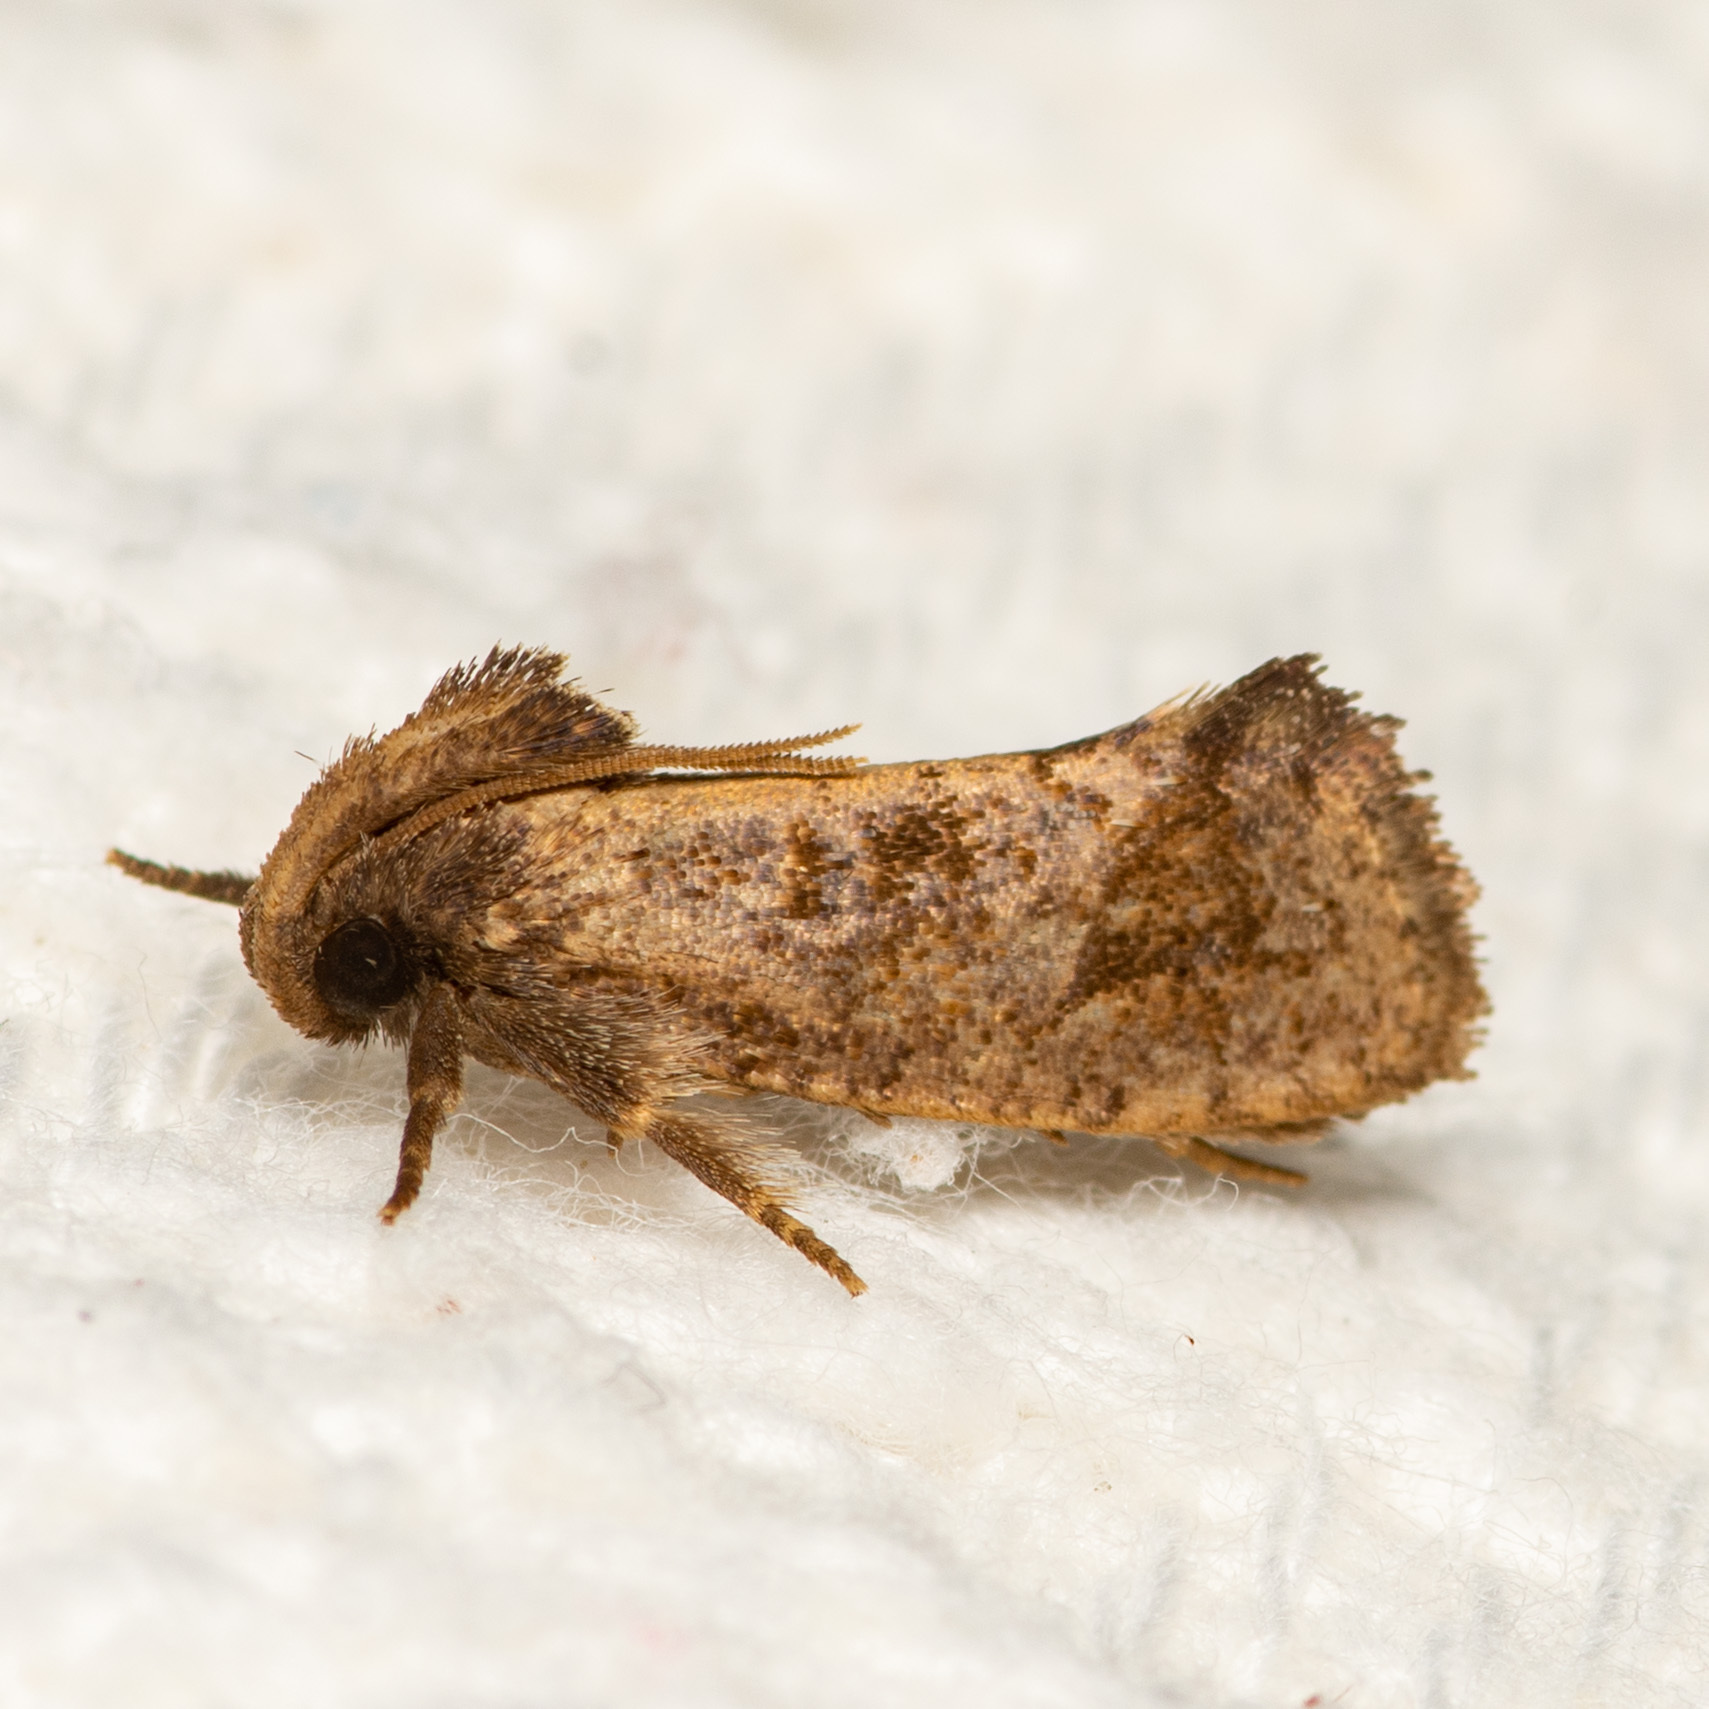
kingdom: Animalia
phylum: Arthropoda
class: Insecta
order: Lepidoptera
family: Tineidae
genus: Acrolophus
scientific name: Acrolophus texanella
